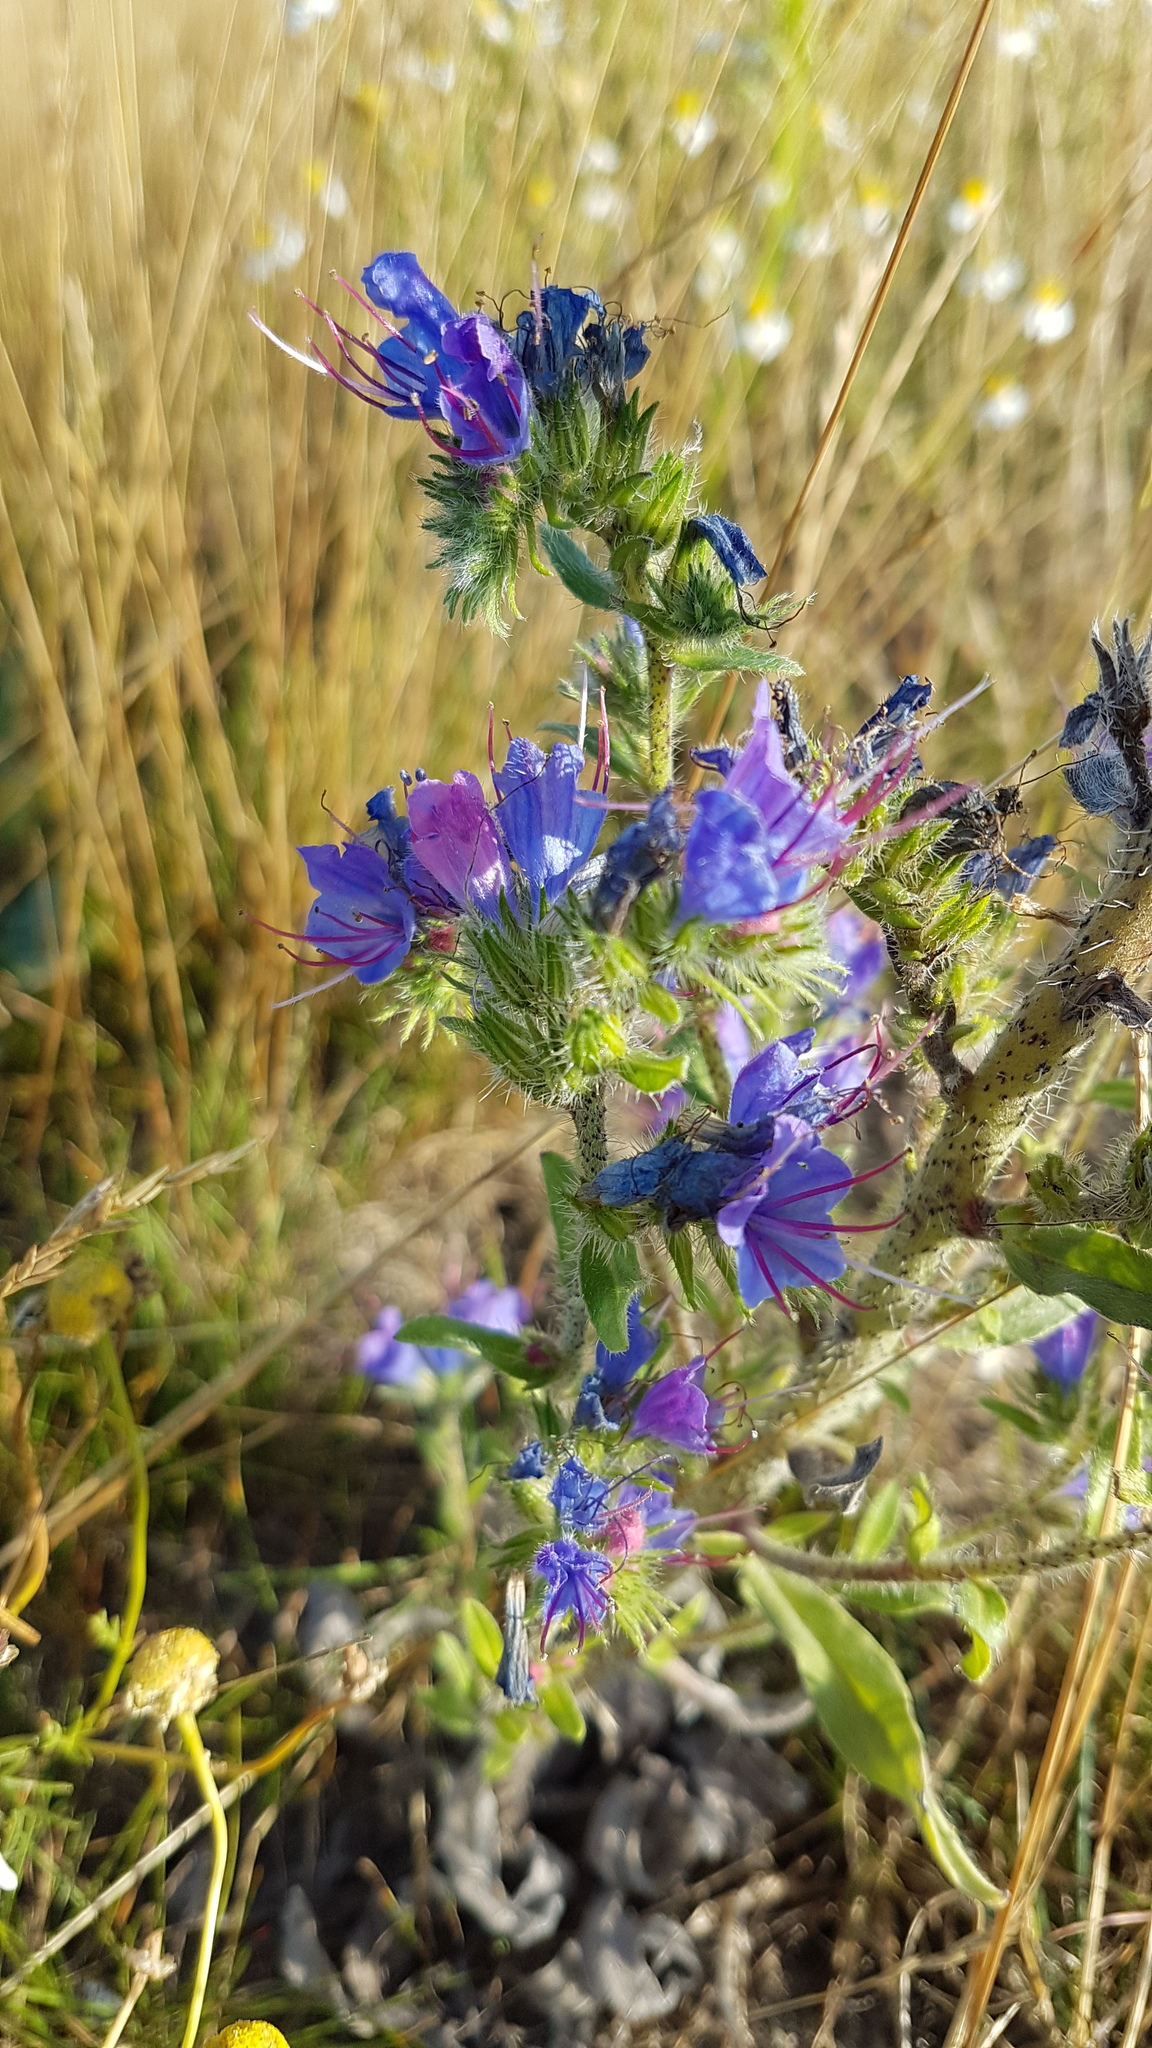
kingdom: Plantae
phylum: Tracheophyta
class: Magnoliopsida
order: Boraginales
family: Boraginaceae
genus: Echium
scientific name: Echium vulgare
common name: Common viper's bugloss
